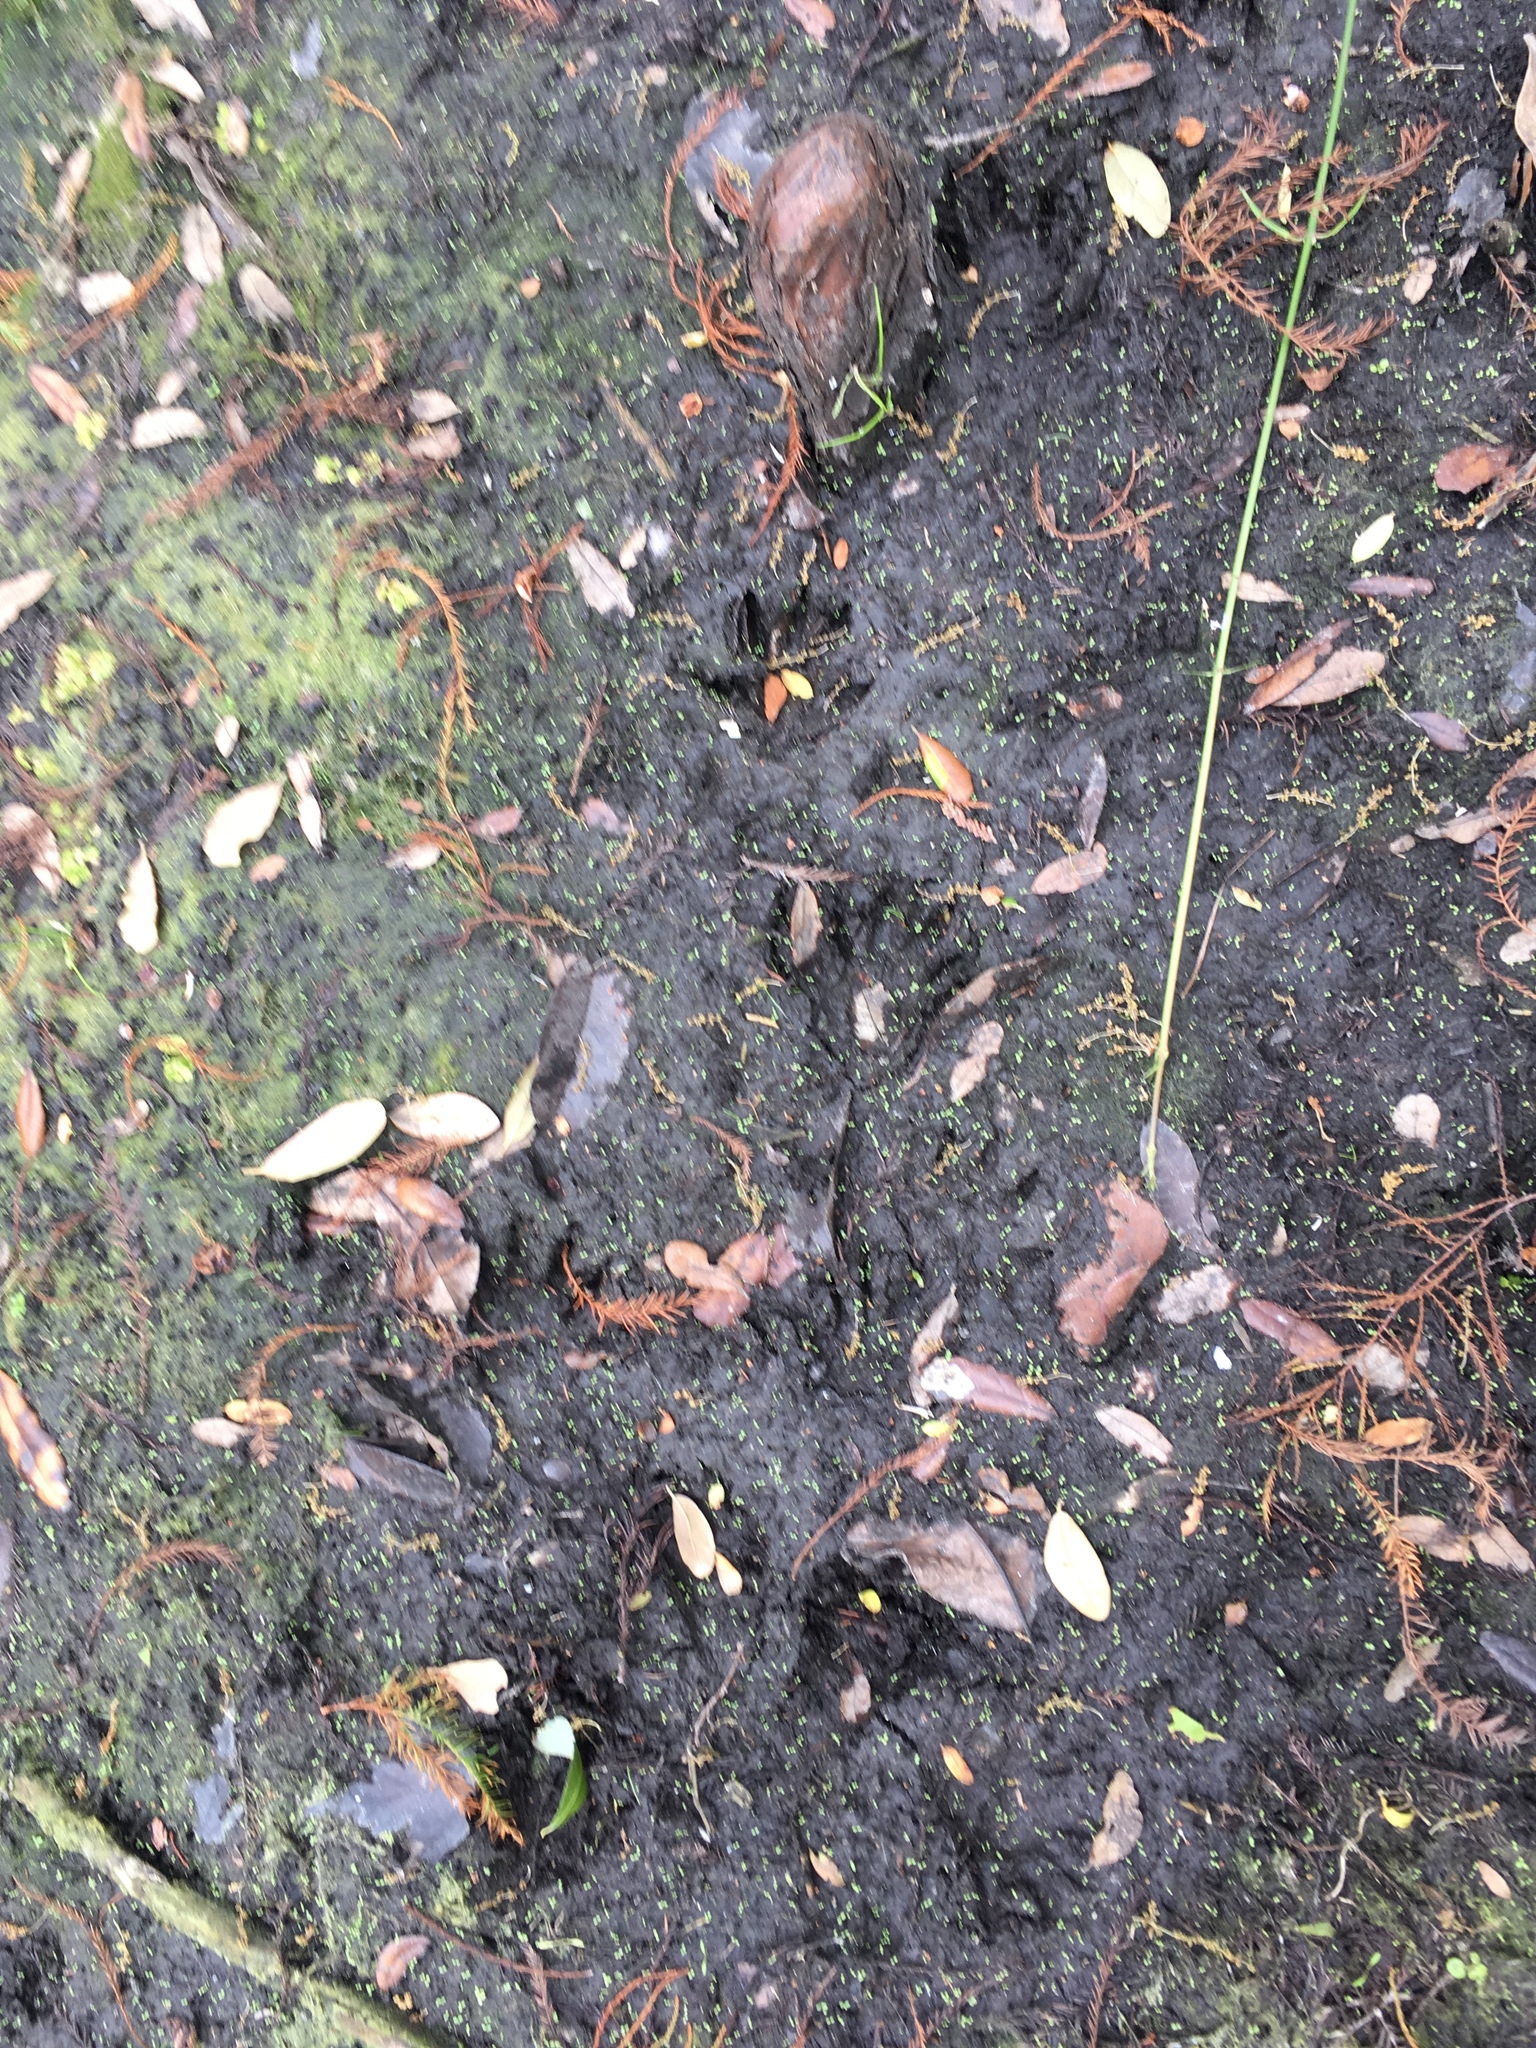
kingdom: Animalia
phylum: Chordata
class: Mammalia
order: Carnivora
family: Procyonidae
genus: Procyon
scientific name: Procyon lotor
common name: Raccoon
